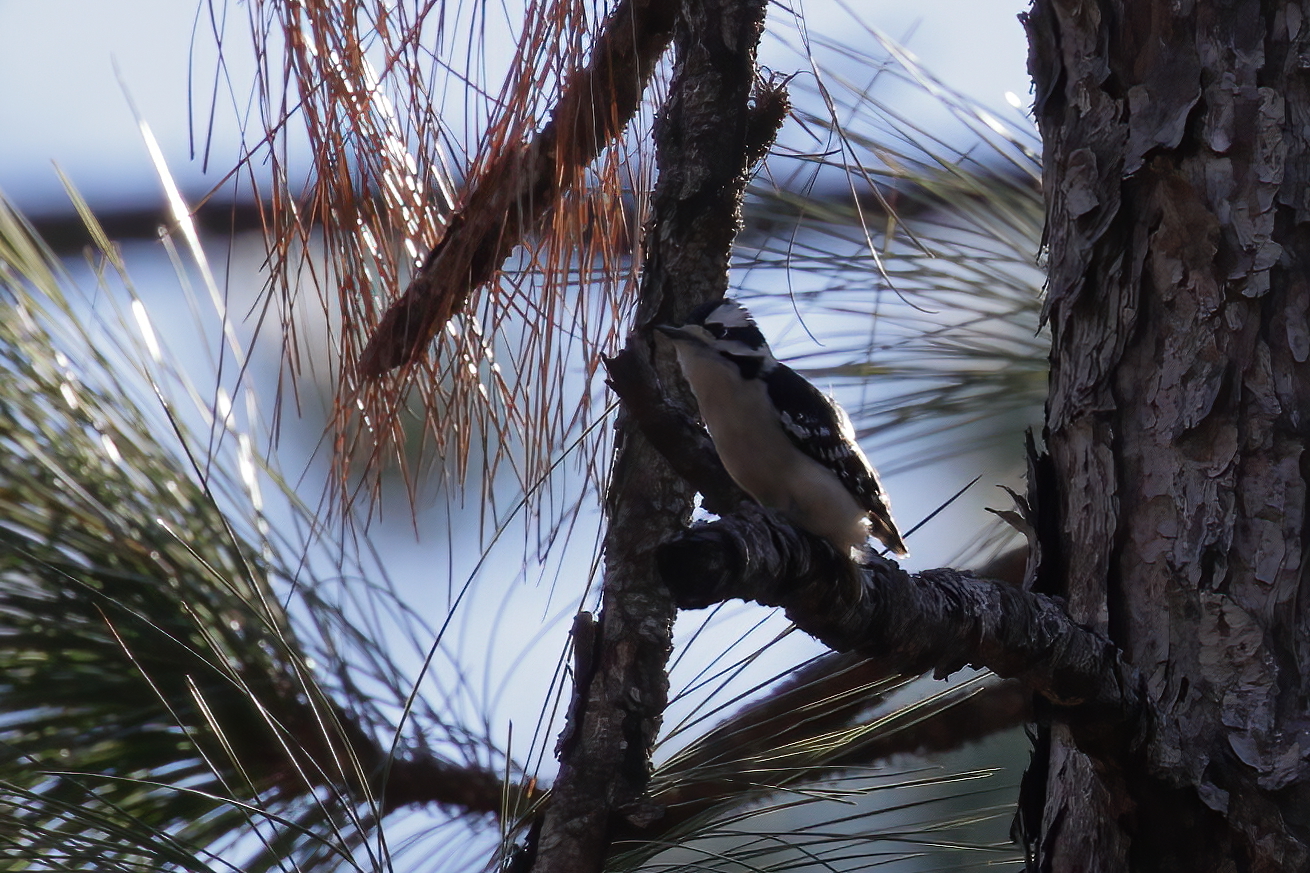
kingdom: Animalia
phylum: Chordata
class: Aves
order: Piciformes
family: Picidae
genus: Dryobates
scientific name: Dryobates pubescens
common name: Downy woodpecker
